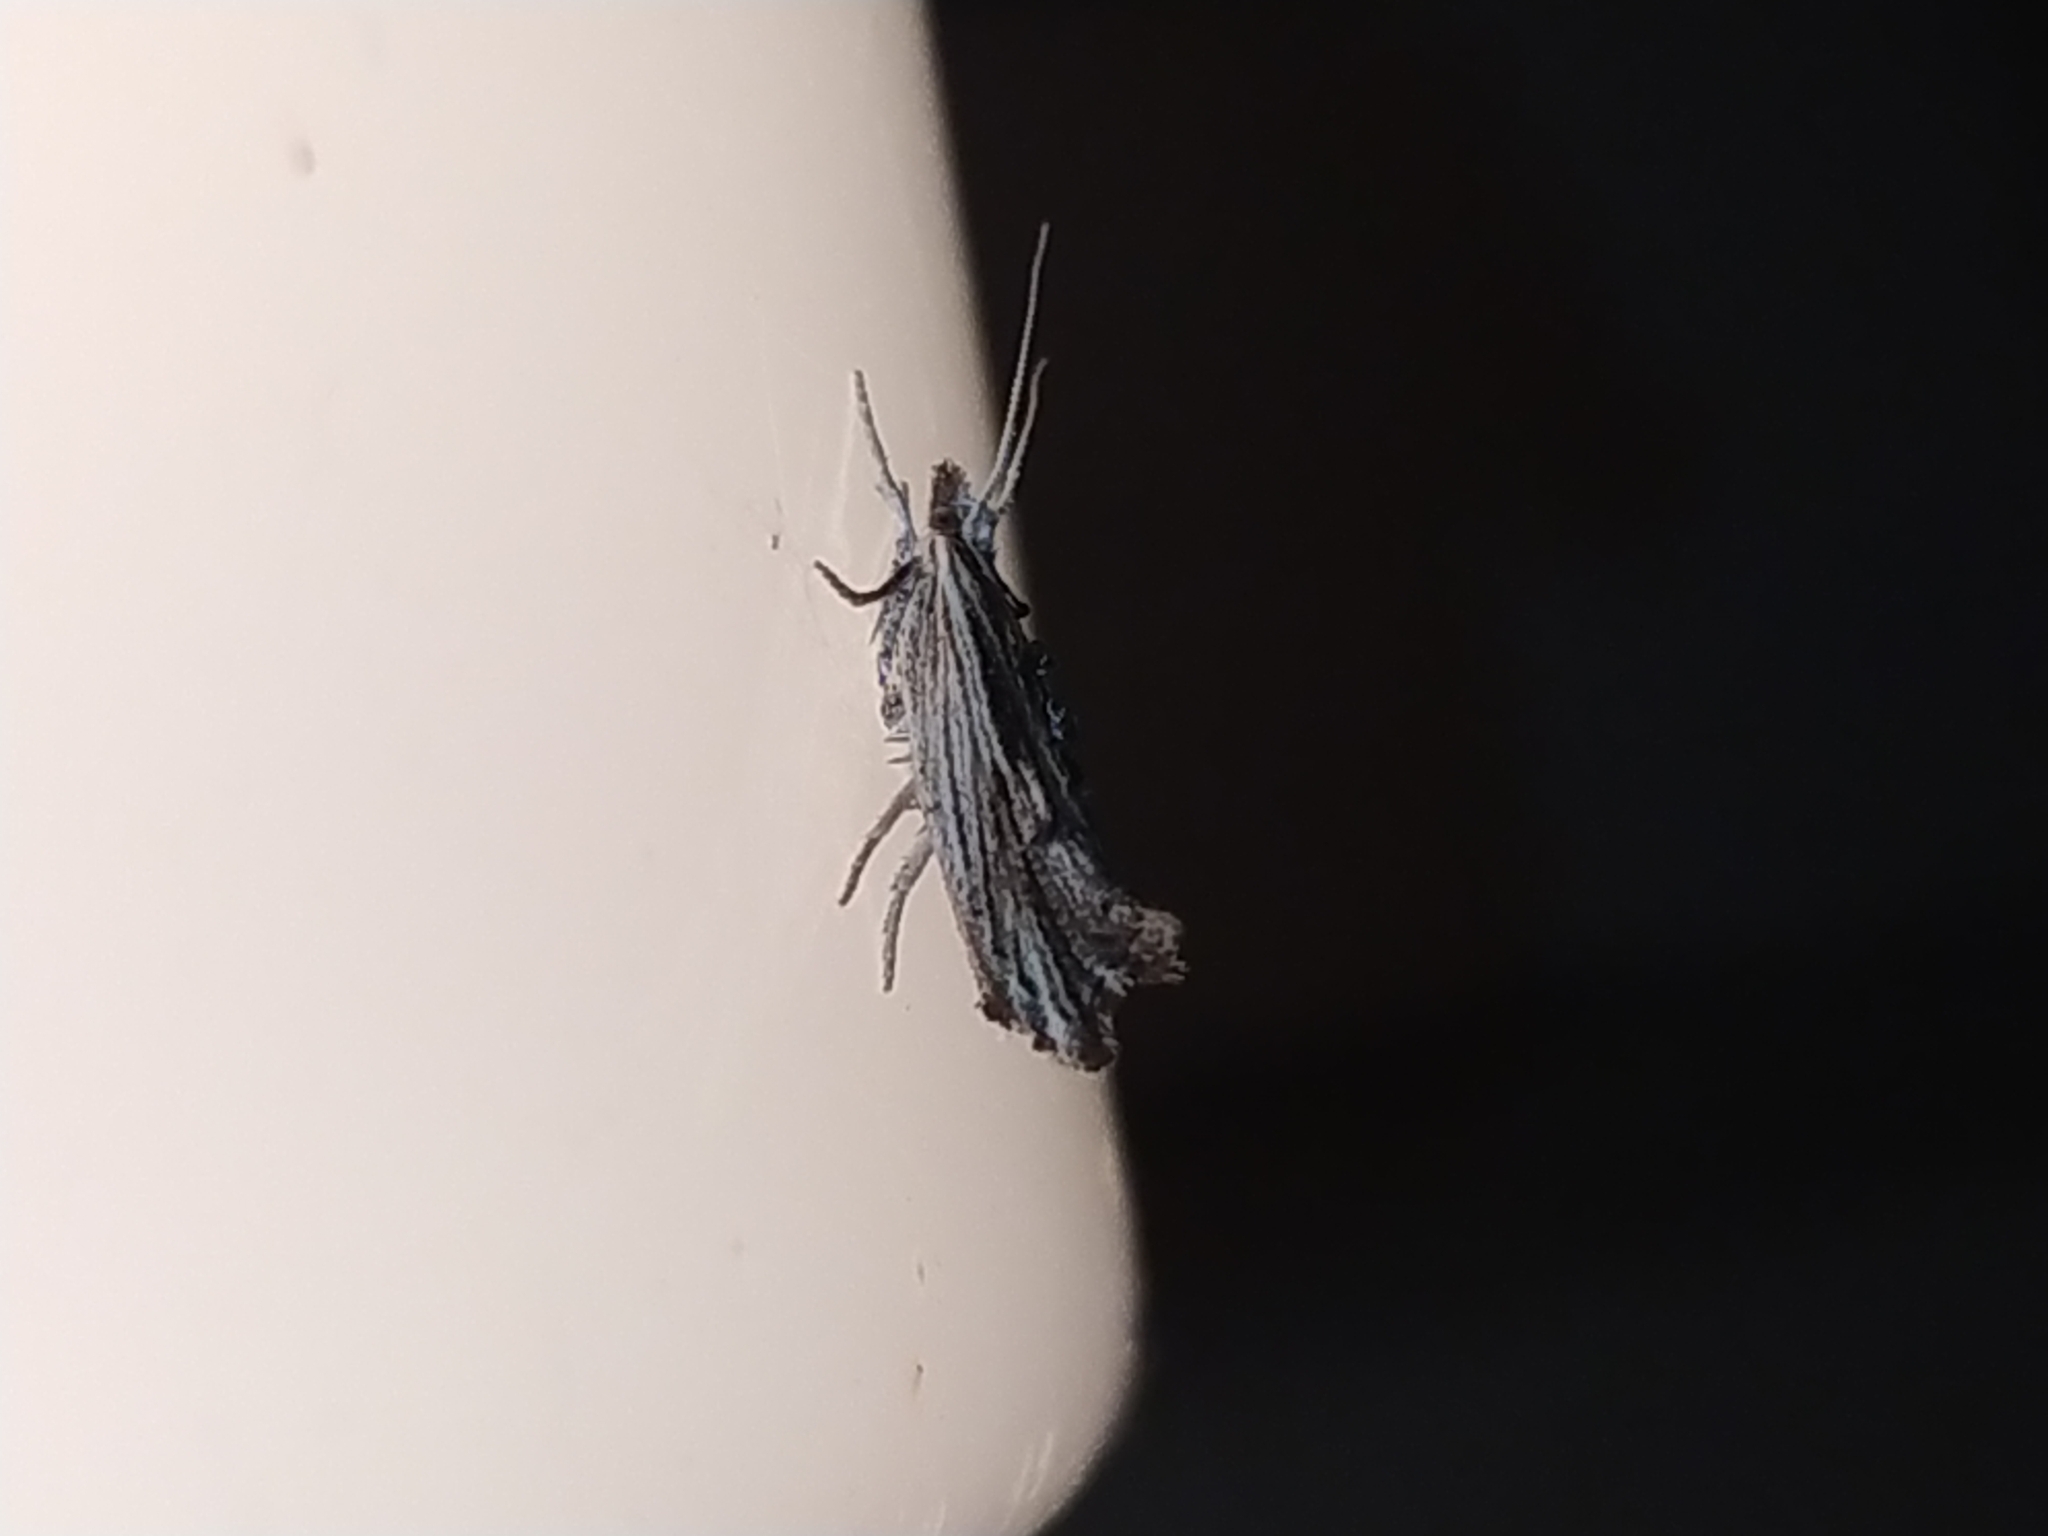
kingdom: Animalia
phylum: Arthropoda
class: Insecta
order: Lepidoptera
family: Ypsolophidae
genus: Ypsolopha
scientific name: Ypsolopha scabrella
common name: Wainscot smudge
